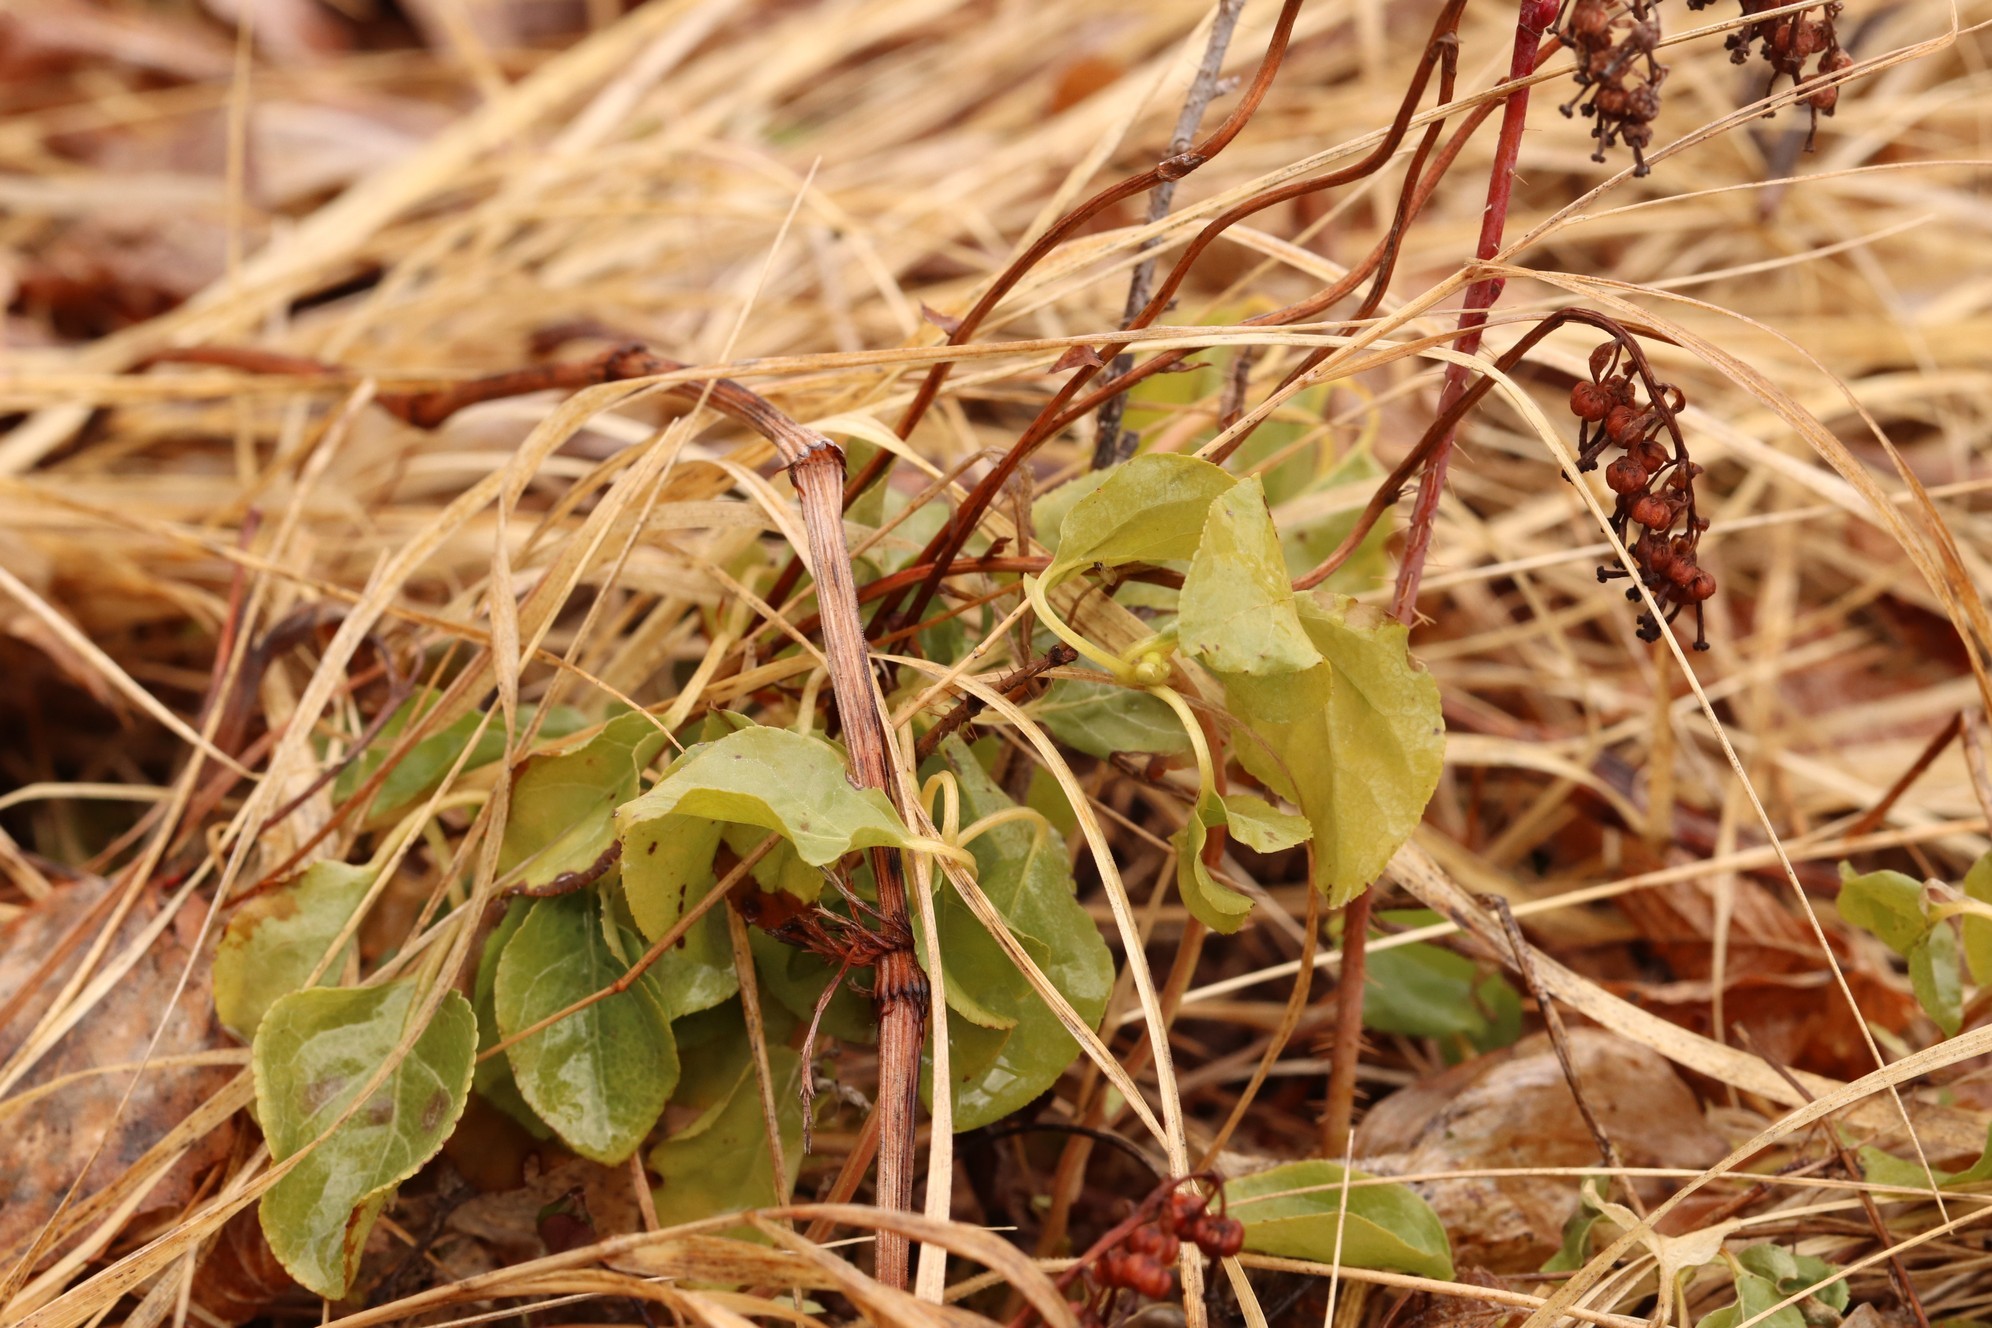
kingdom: Plantae
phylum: Tracheophyta
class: Magnoliopsida
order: Ericales
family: Ericaceae
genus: Orthilia
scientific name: Orthilia secunda
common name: One-sided orthilia
